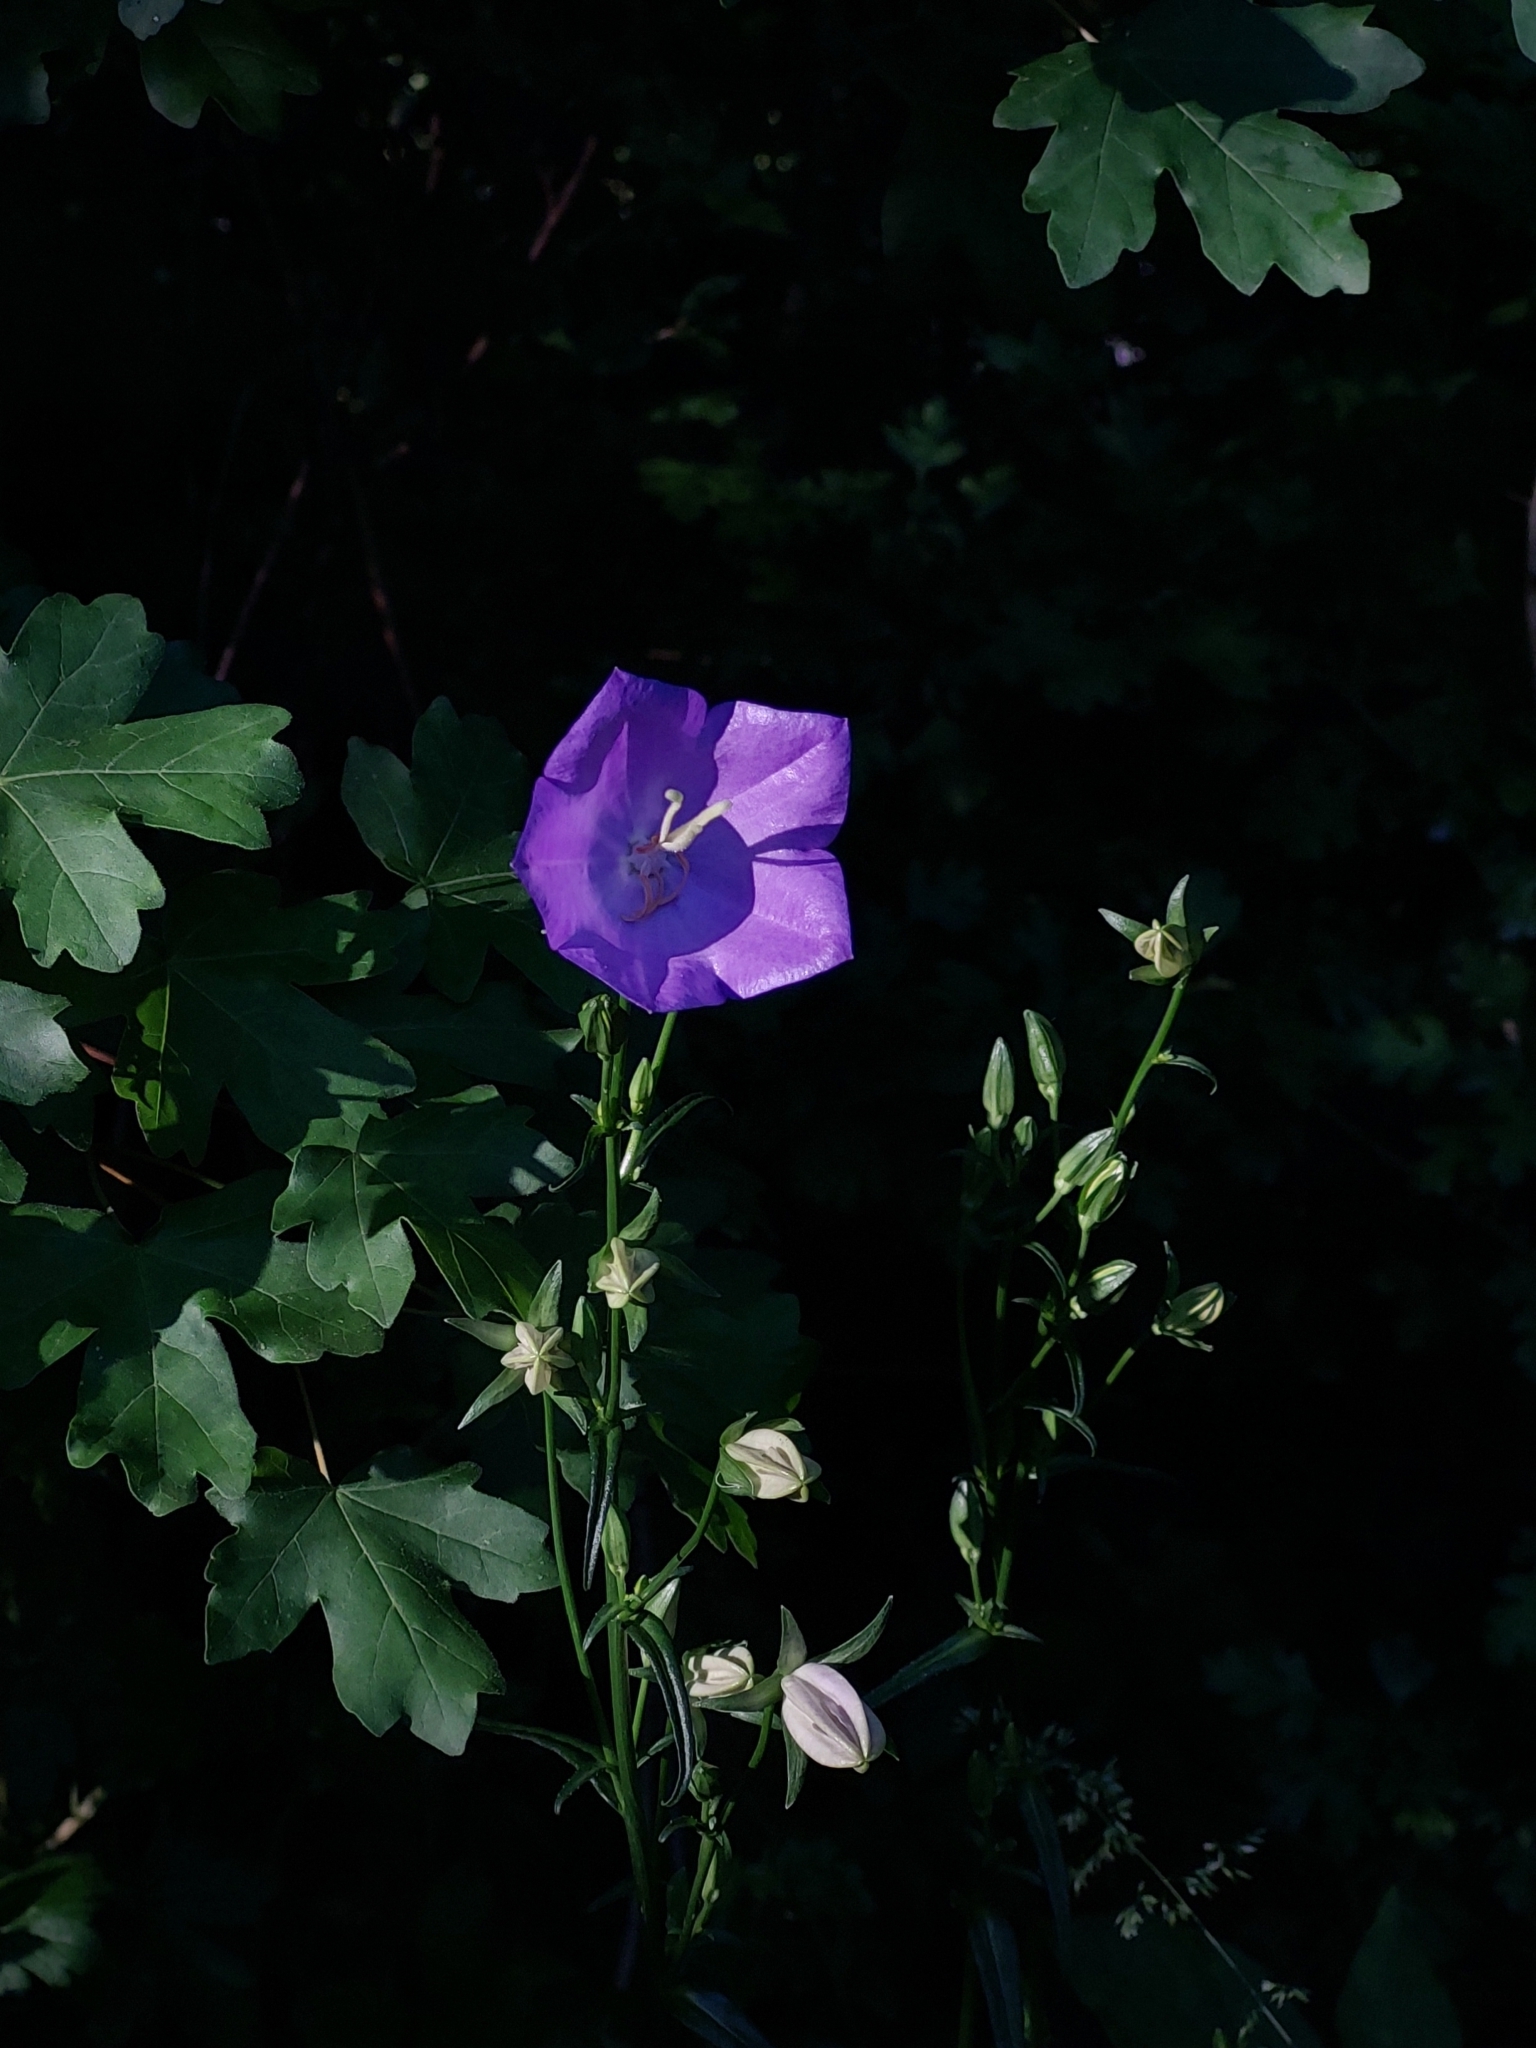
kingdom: Plantae
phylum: Tracheophyta
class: Magnoliopsida
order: Asterales
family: Campanulaceae
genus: Campanula
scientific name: Campanula persicifolia
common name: Peach-leaved bellflower
